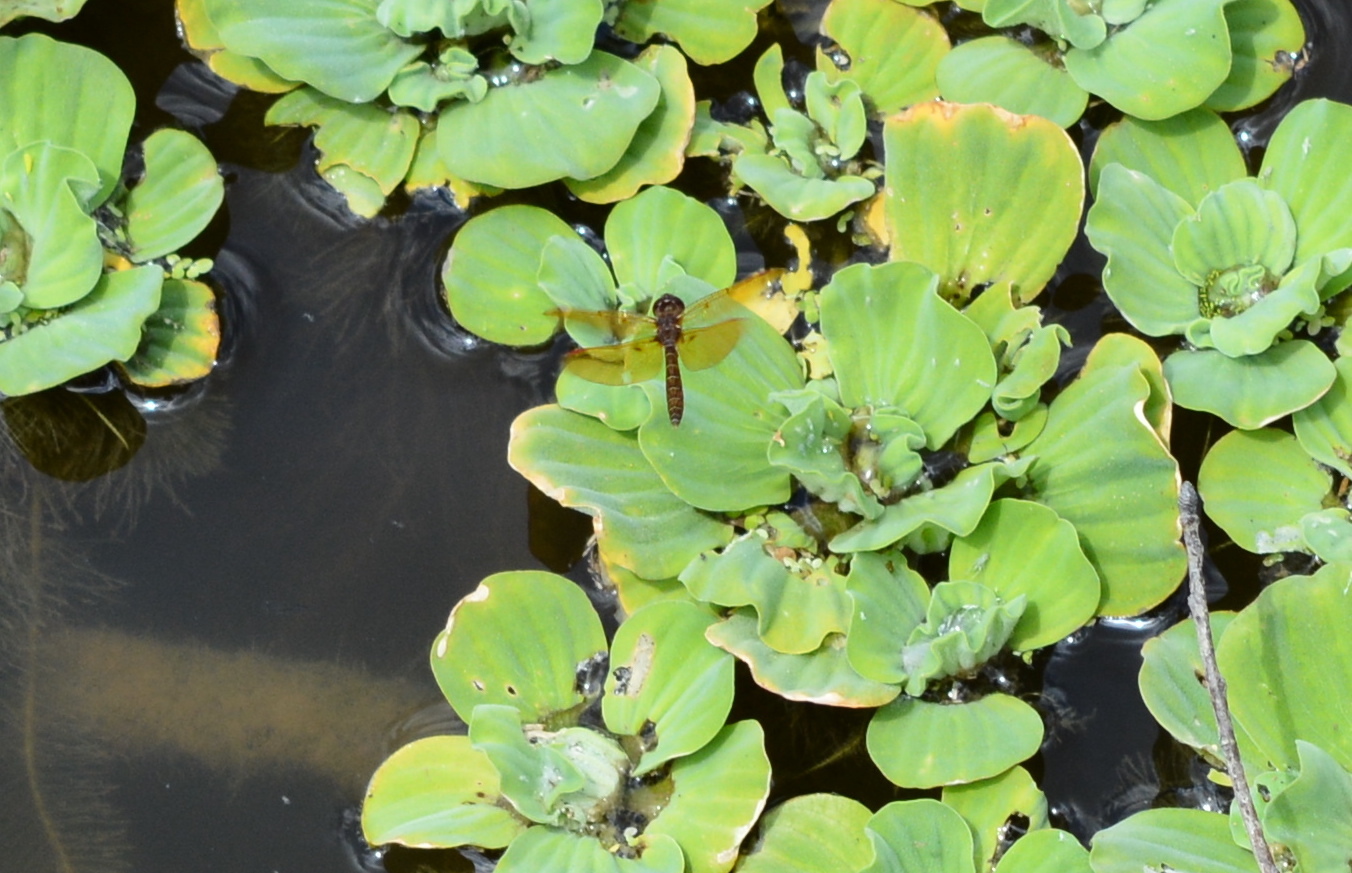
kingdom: Animalia
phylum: Arthropoda
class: Insecta
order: Odonata
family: Libellulidae
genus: Perithemis
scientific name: Perithemis tenera
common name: Eastern amberwing
